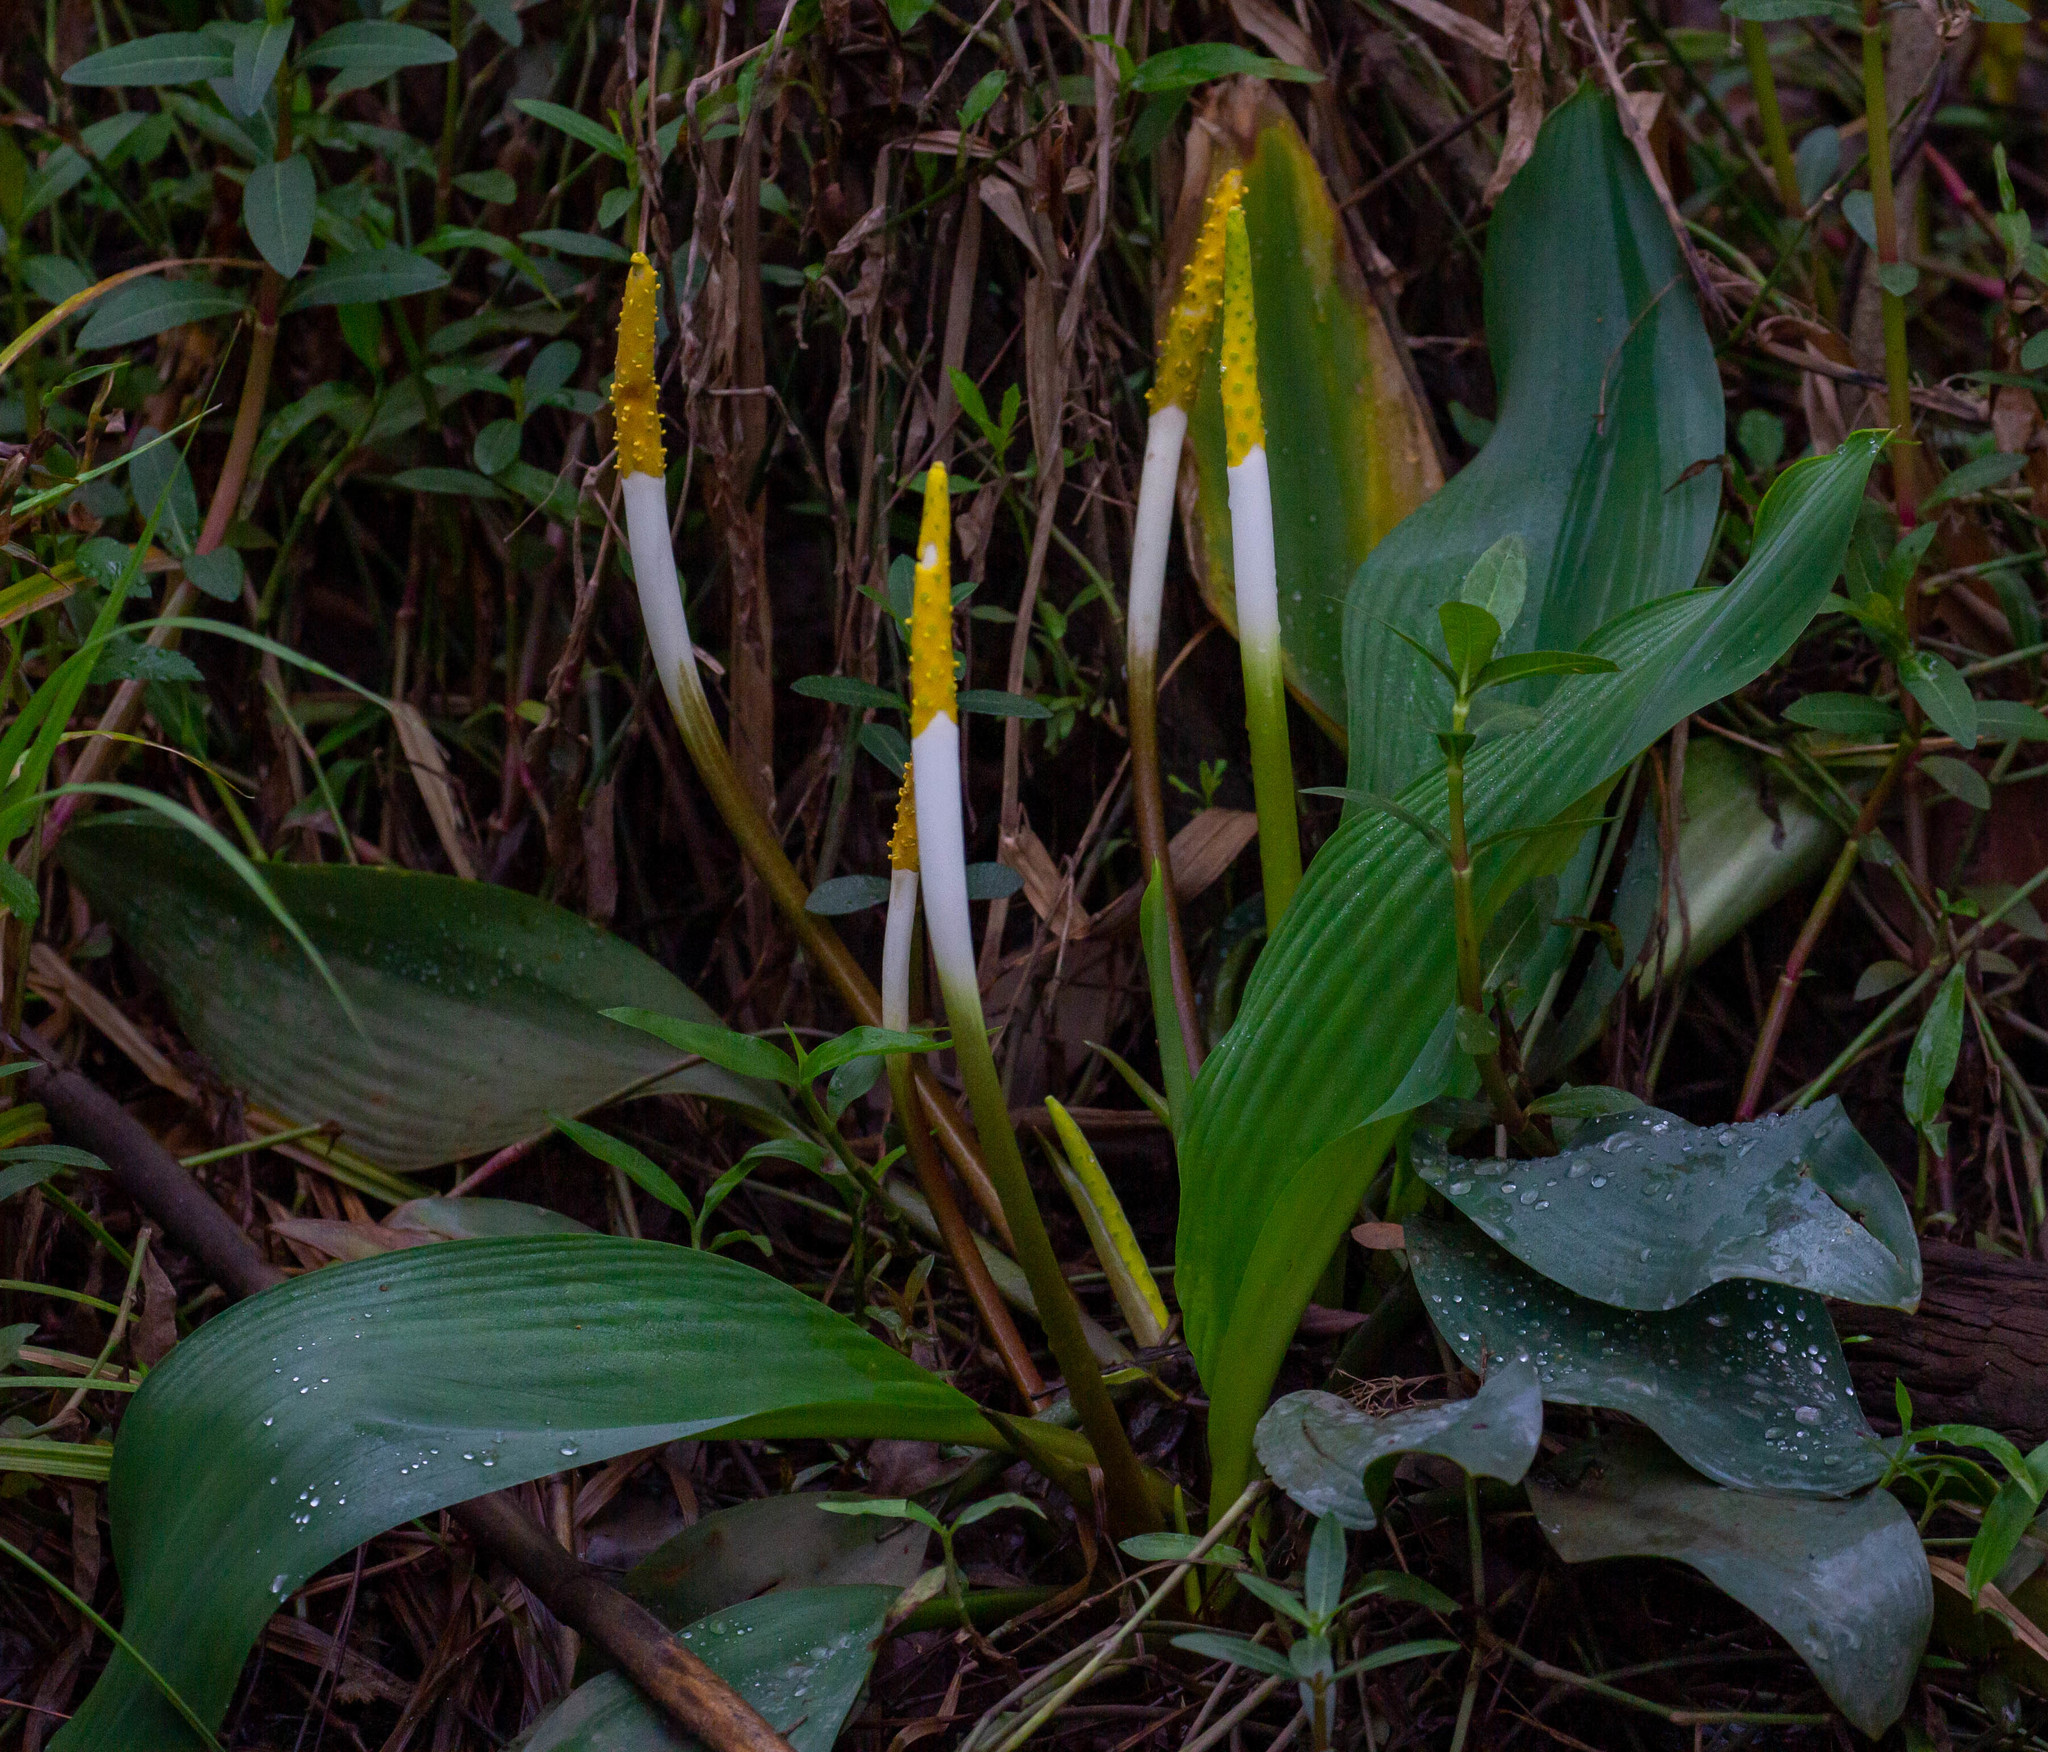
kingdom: Plantae
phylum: Tracheophyta
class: Liliopsida
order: Alismatales
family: Araceae
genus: Orontium
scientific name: Orontium aquaticum
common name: Golden-club
